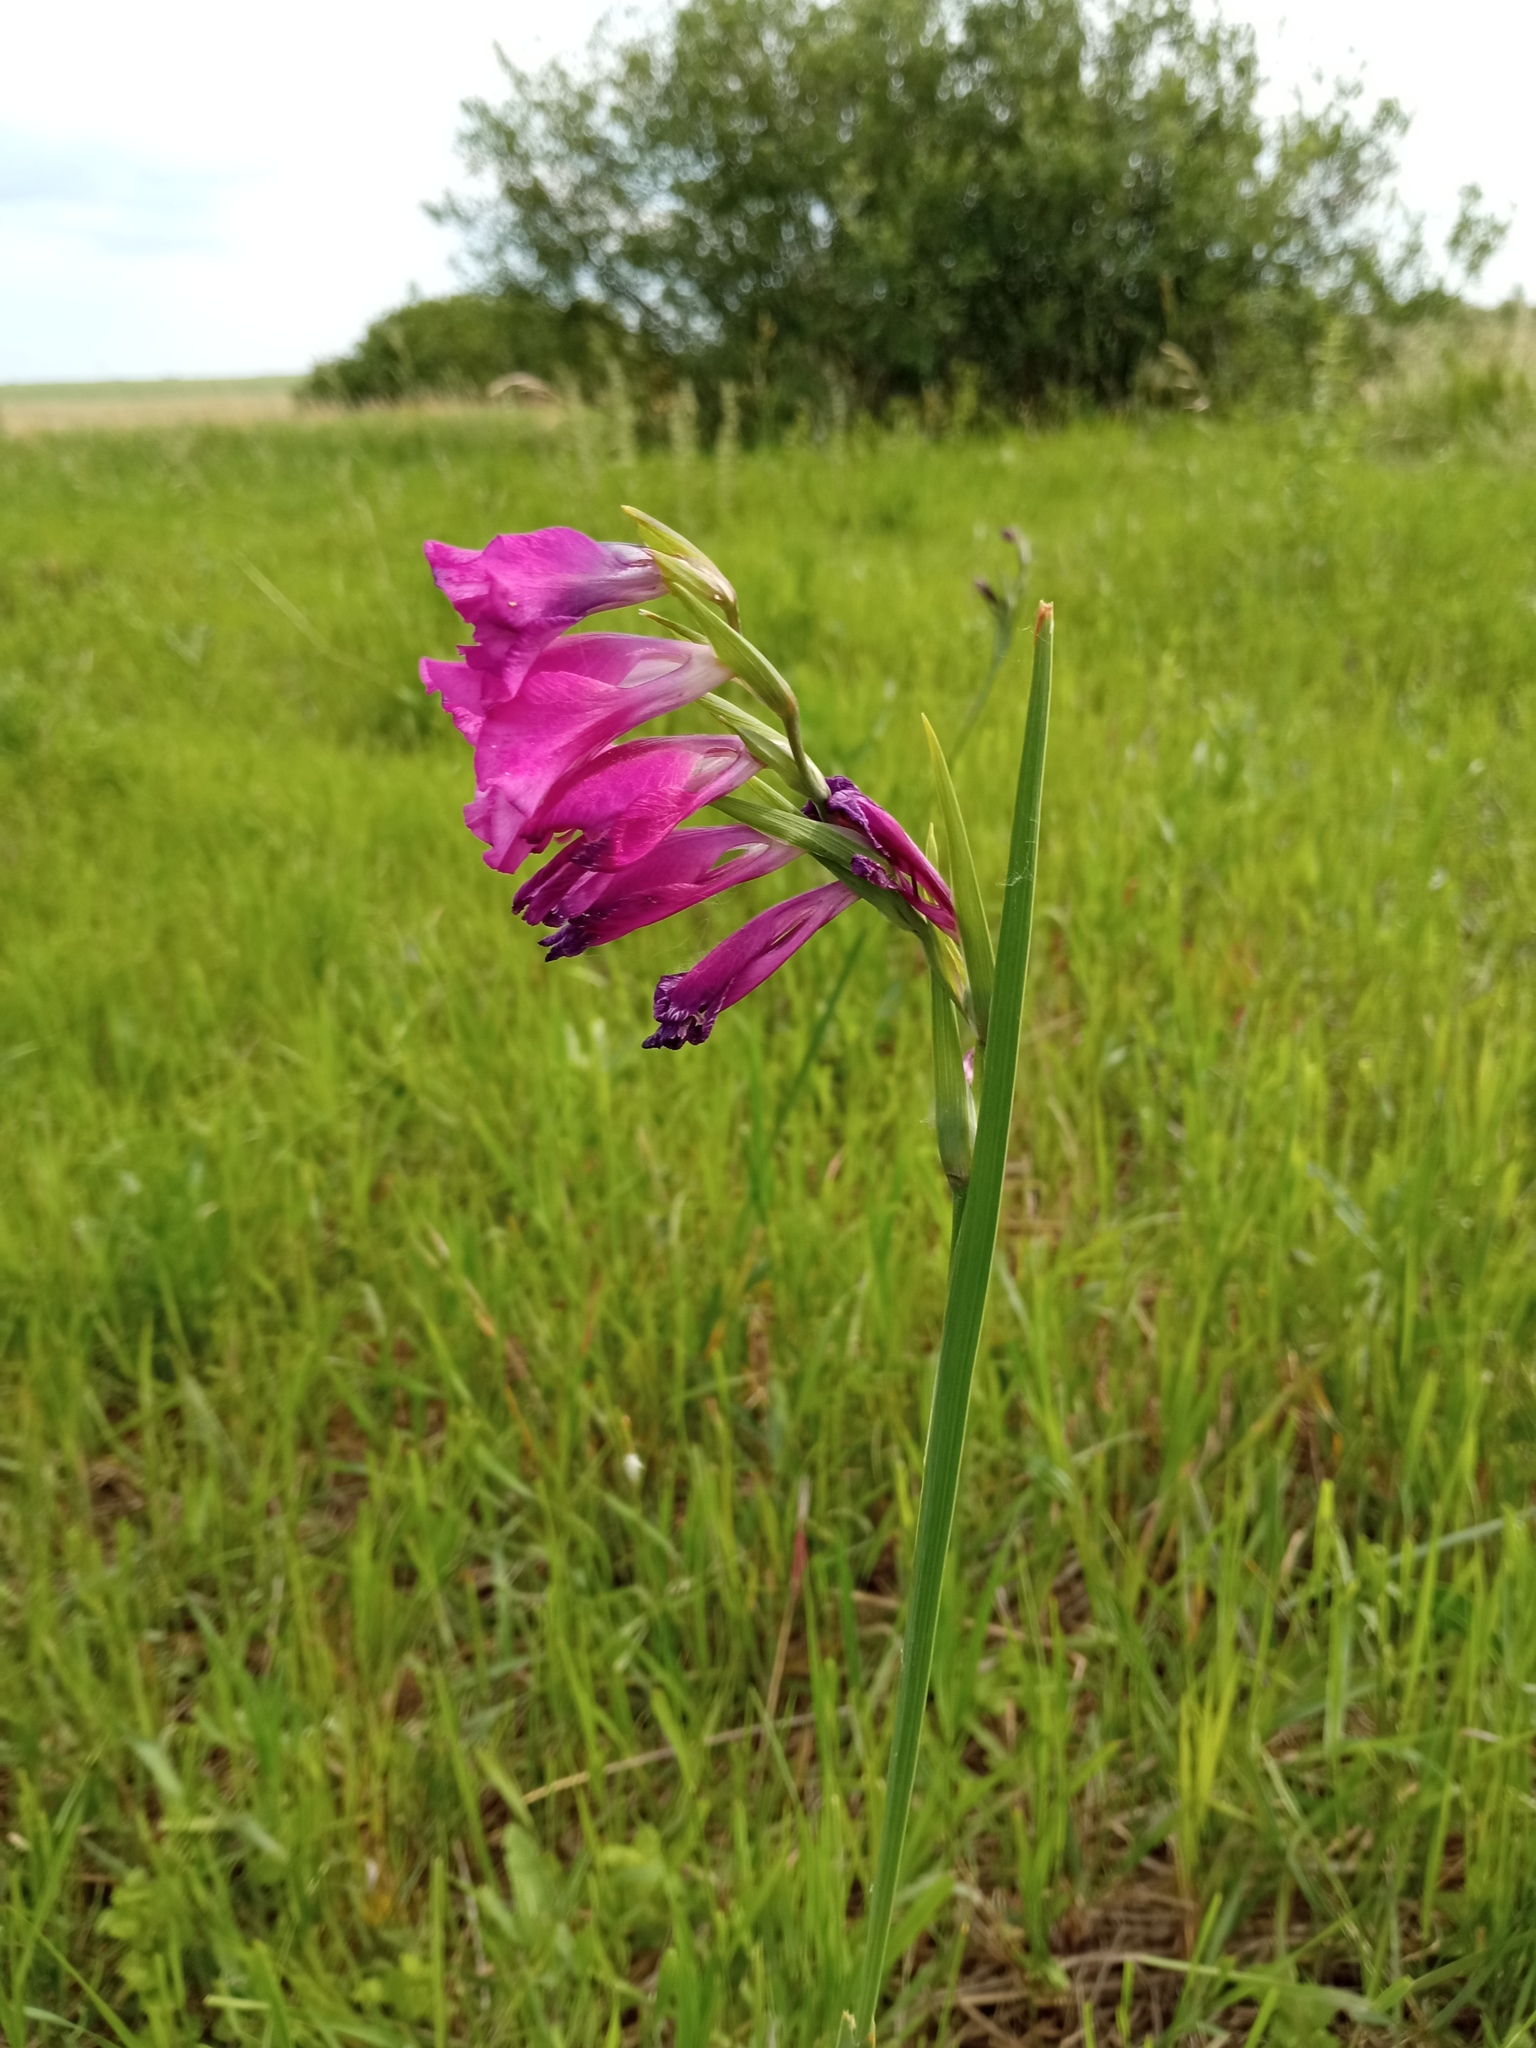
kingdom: Plantae
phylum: Tracheophyta
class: Liliopsida
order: Asparagales
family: Iridaceae
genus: Gladiolus
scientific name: Gladiolus tenuis
